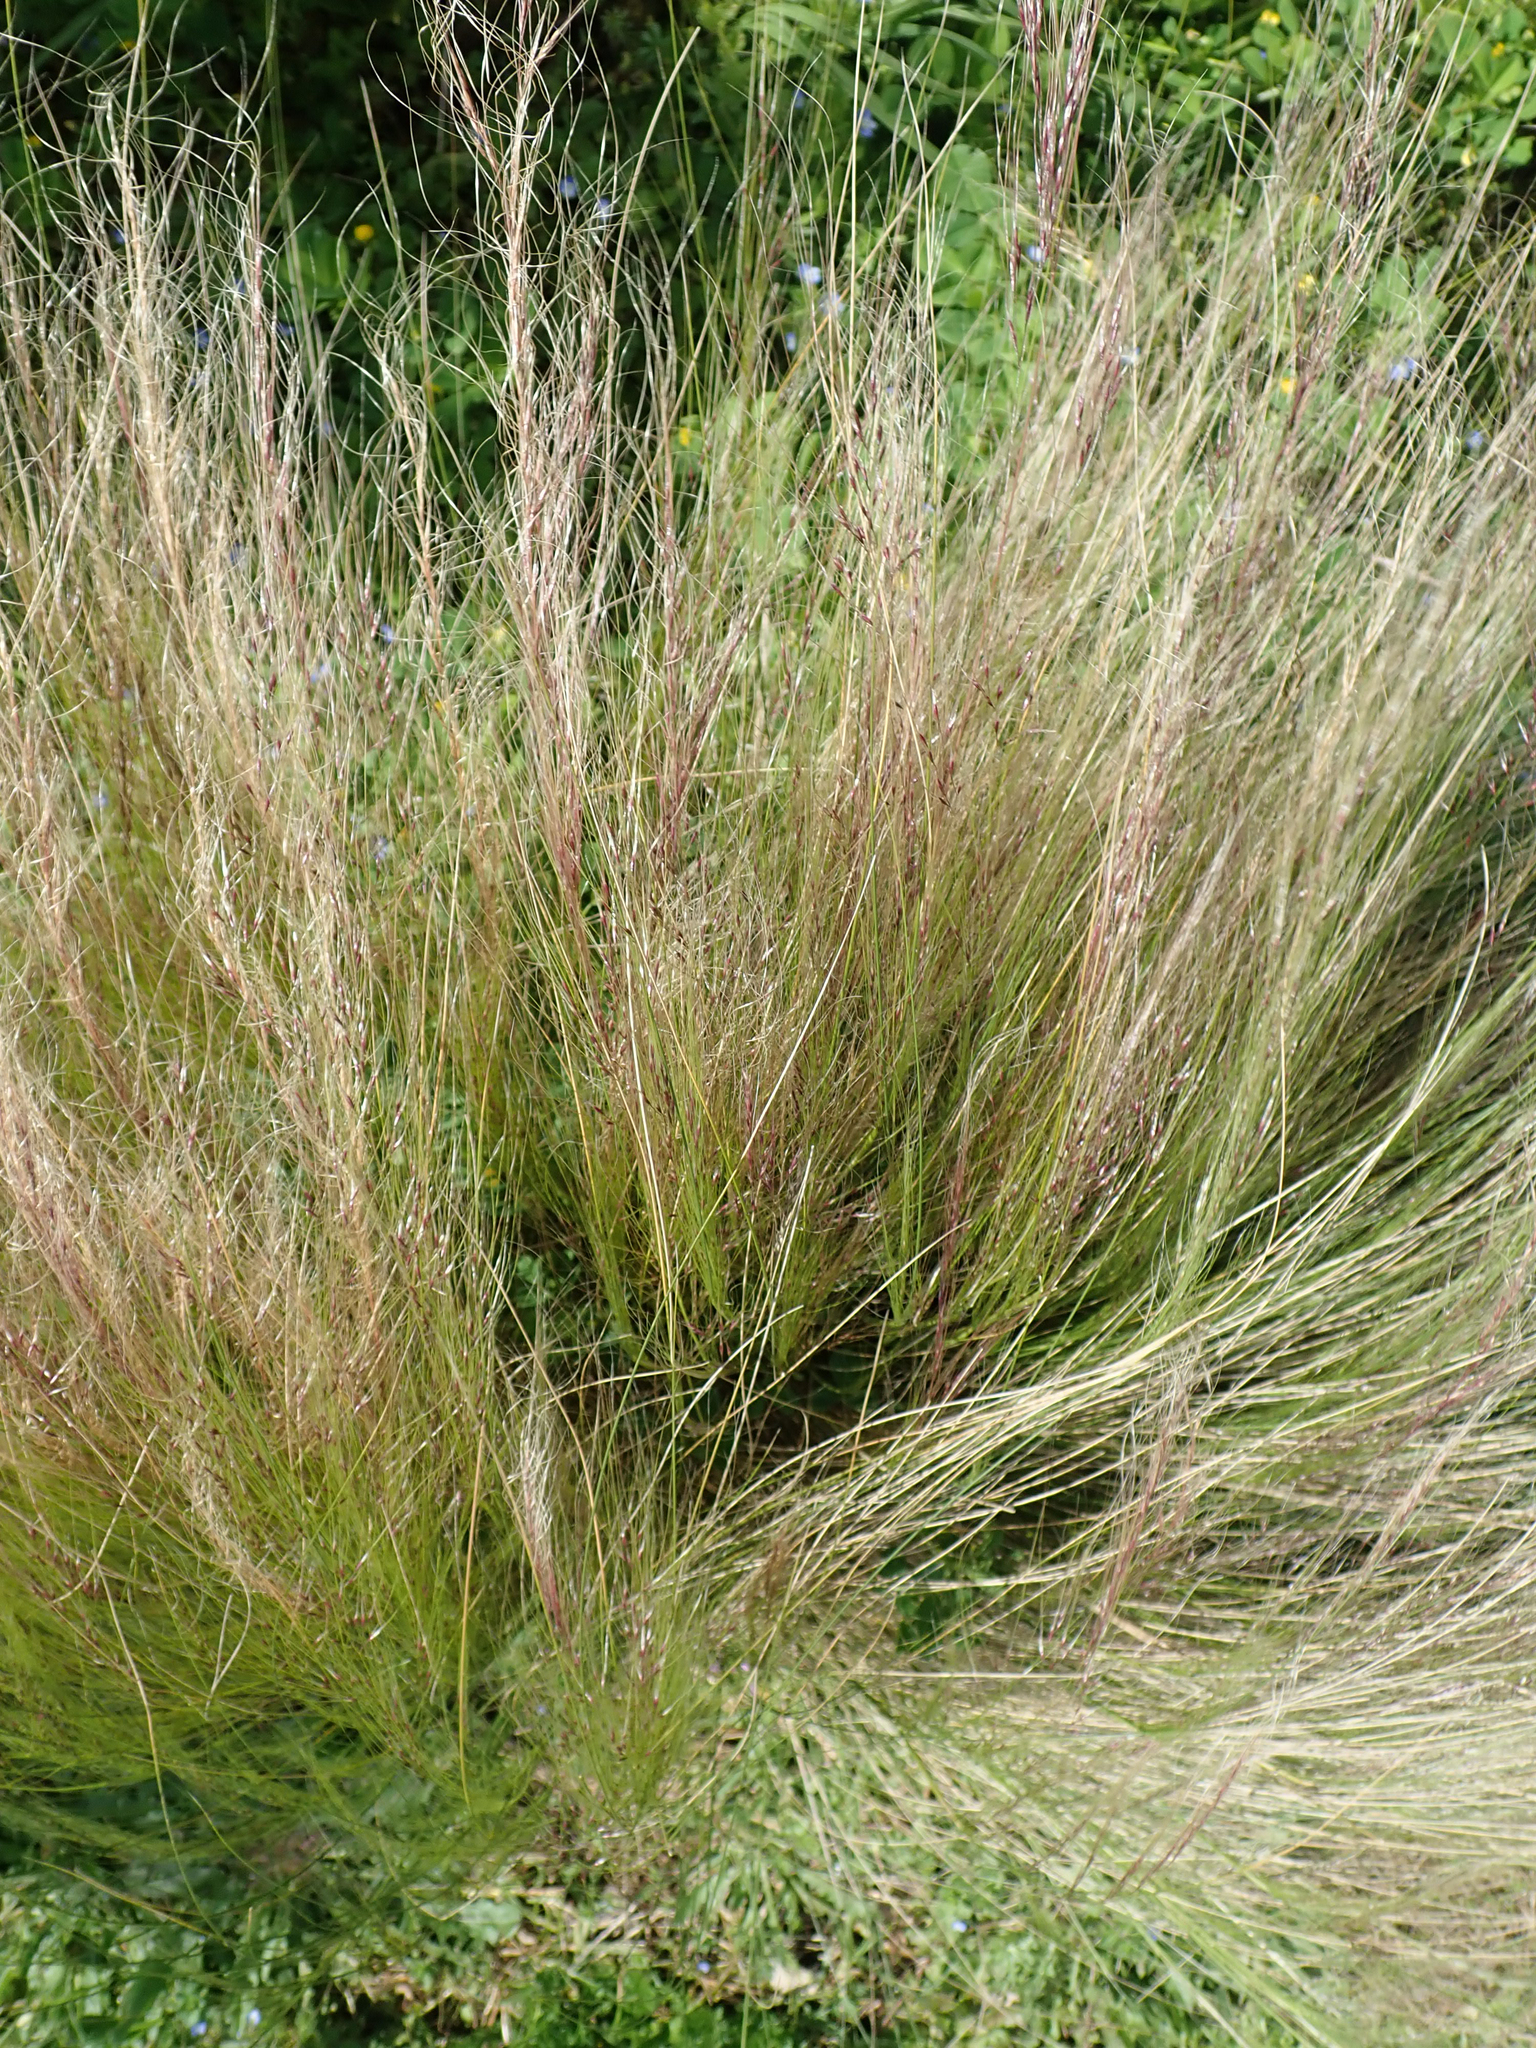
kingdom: Plantae
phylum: Tracheophyta
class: Liliopsida
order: Poales
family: Poaceae
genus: Nassella
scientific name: Nassella tenuissima
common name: Argentine needlegrass
